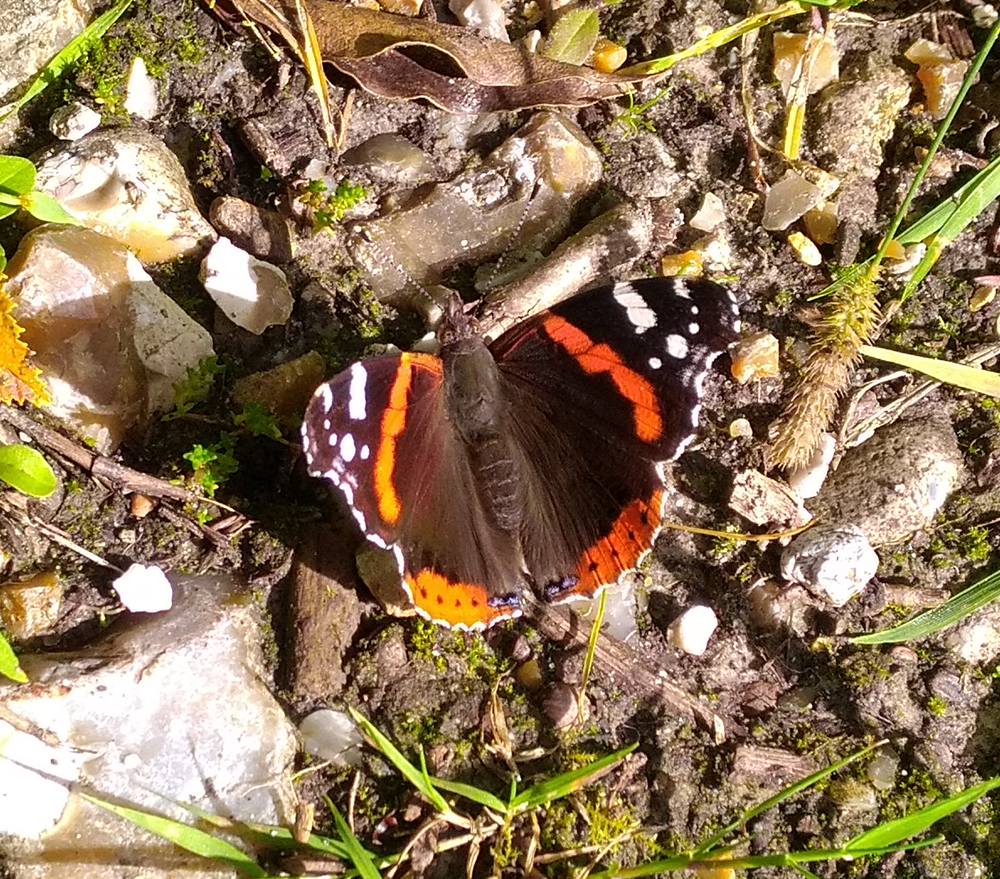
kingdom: Animalia
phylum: Arthropoda
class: Insecta
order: Lepidoptera
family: Nymphalidae
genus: Vanessa
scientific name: Vanessa atalanta
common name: Red admiral
